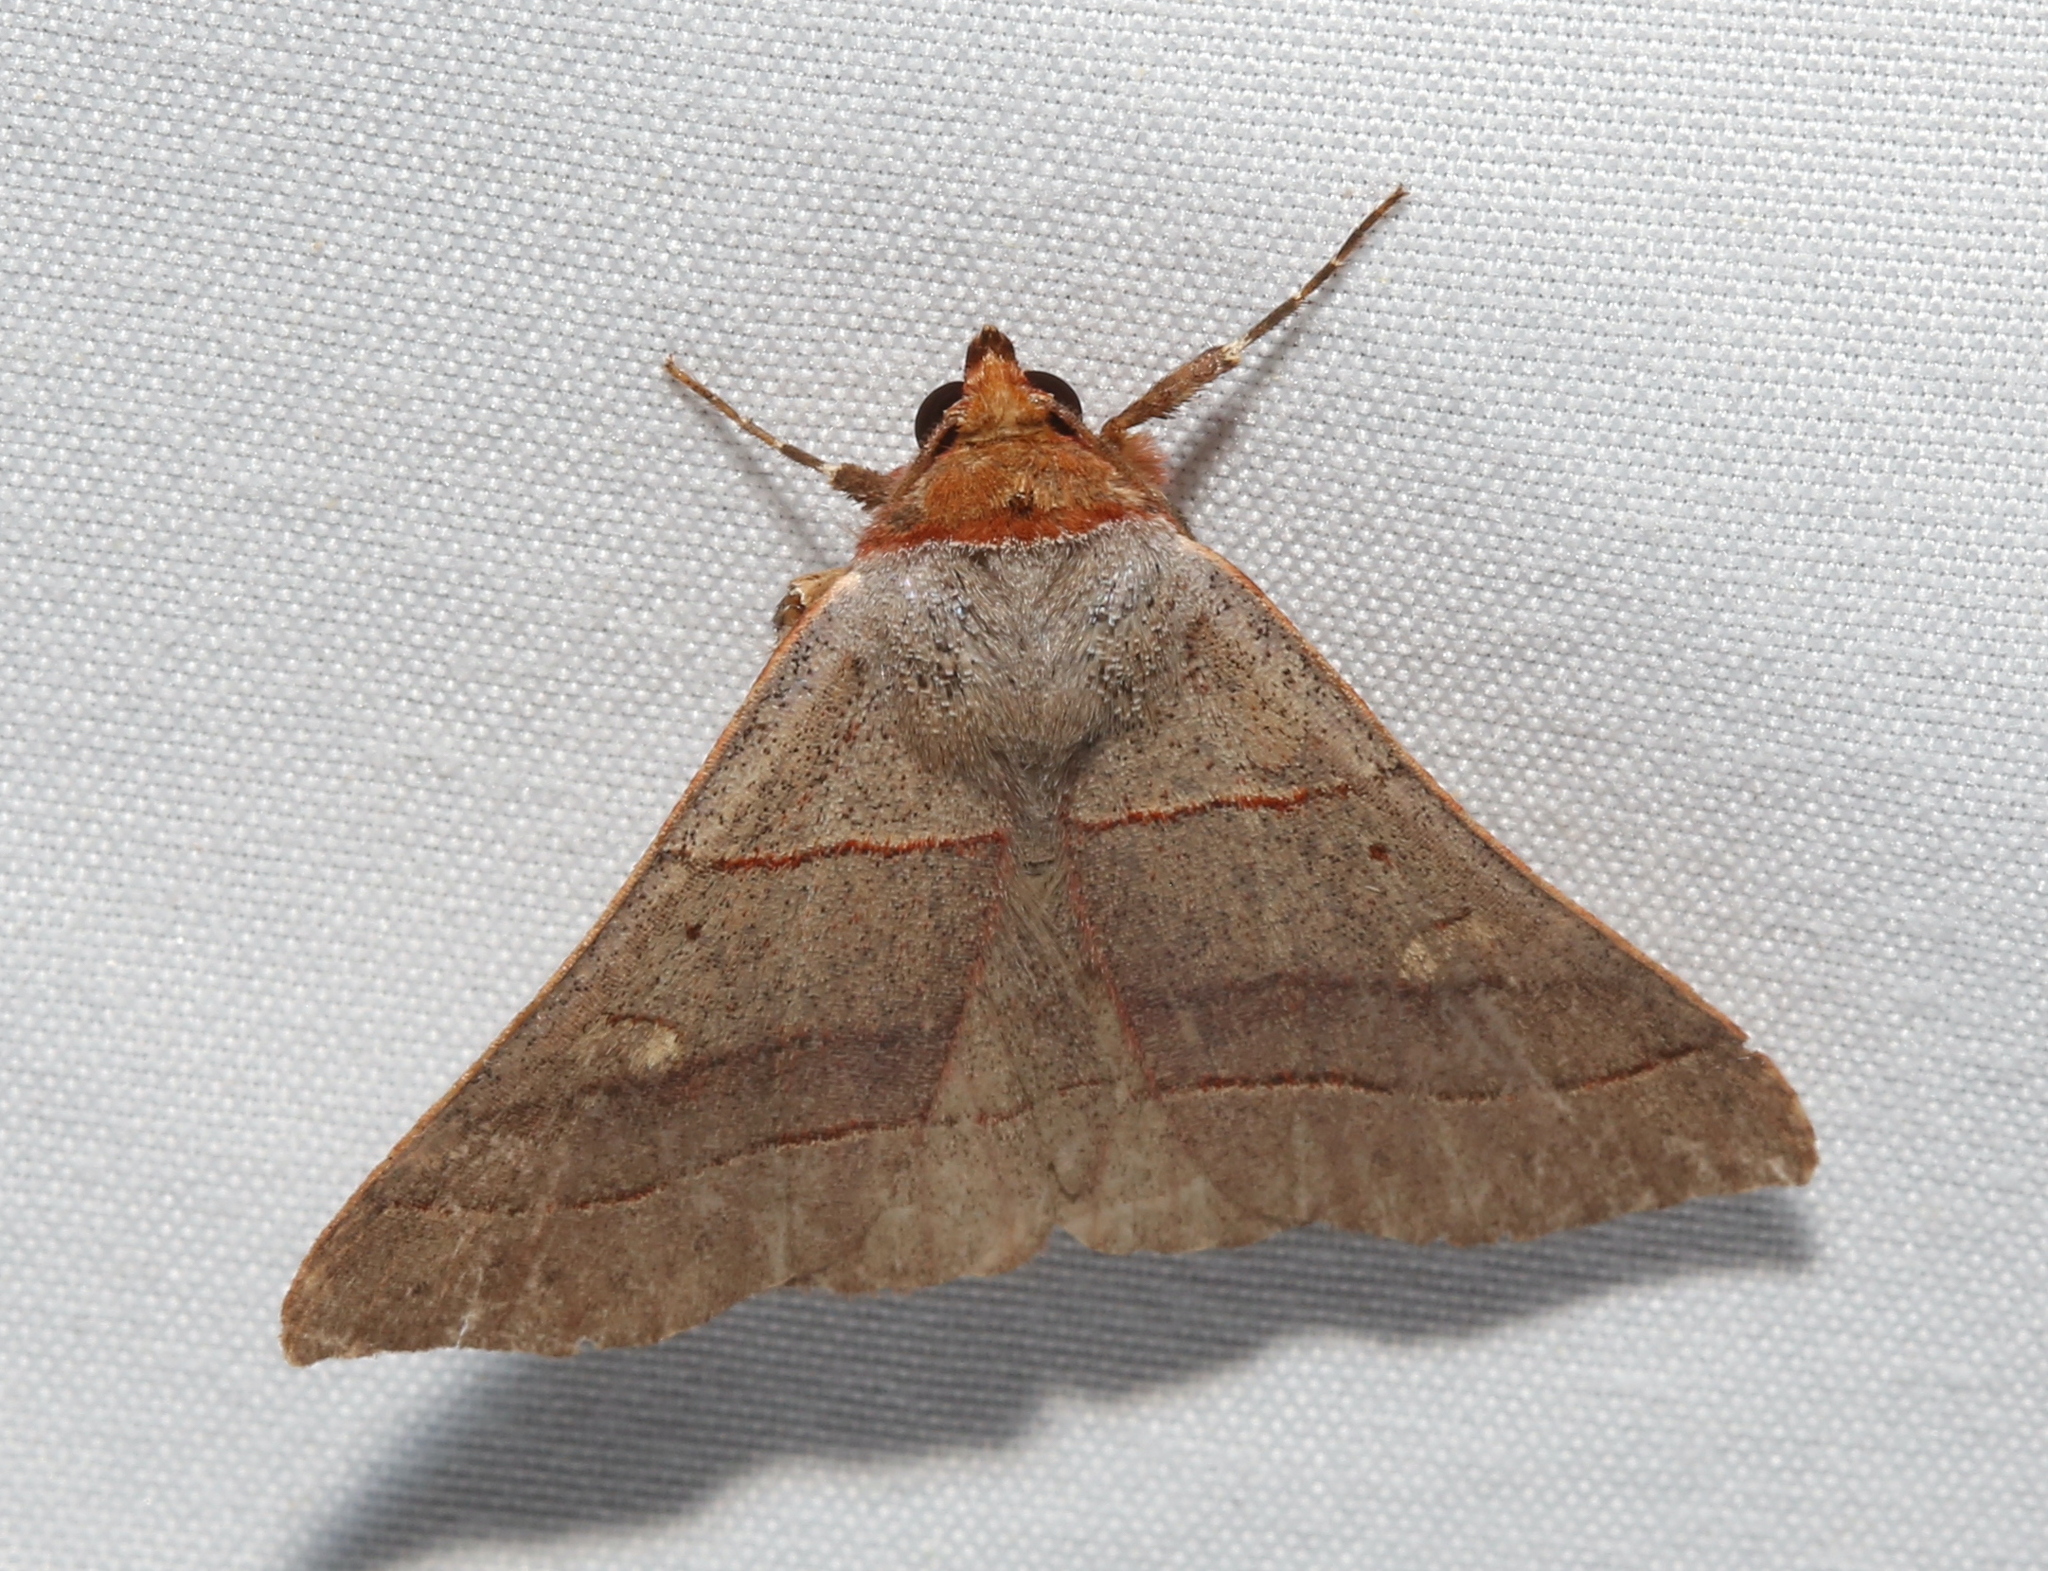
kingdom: Animalia
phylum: Arthropoda
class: Insecta
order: Lepidoptera
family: Erebidae
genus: Panopoda
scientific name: Panopoda rufimargo
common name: Red-lined panopoda moth
